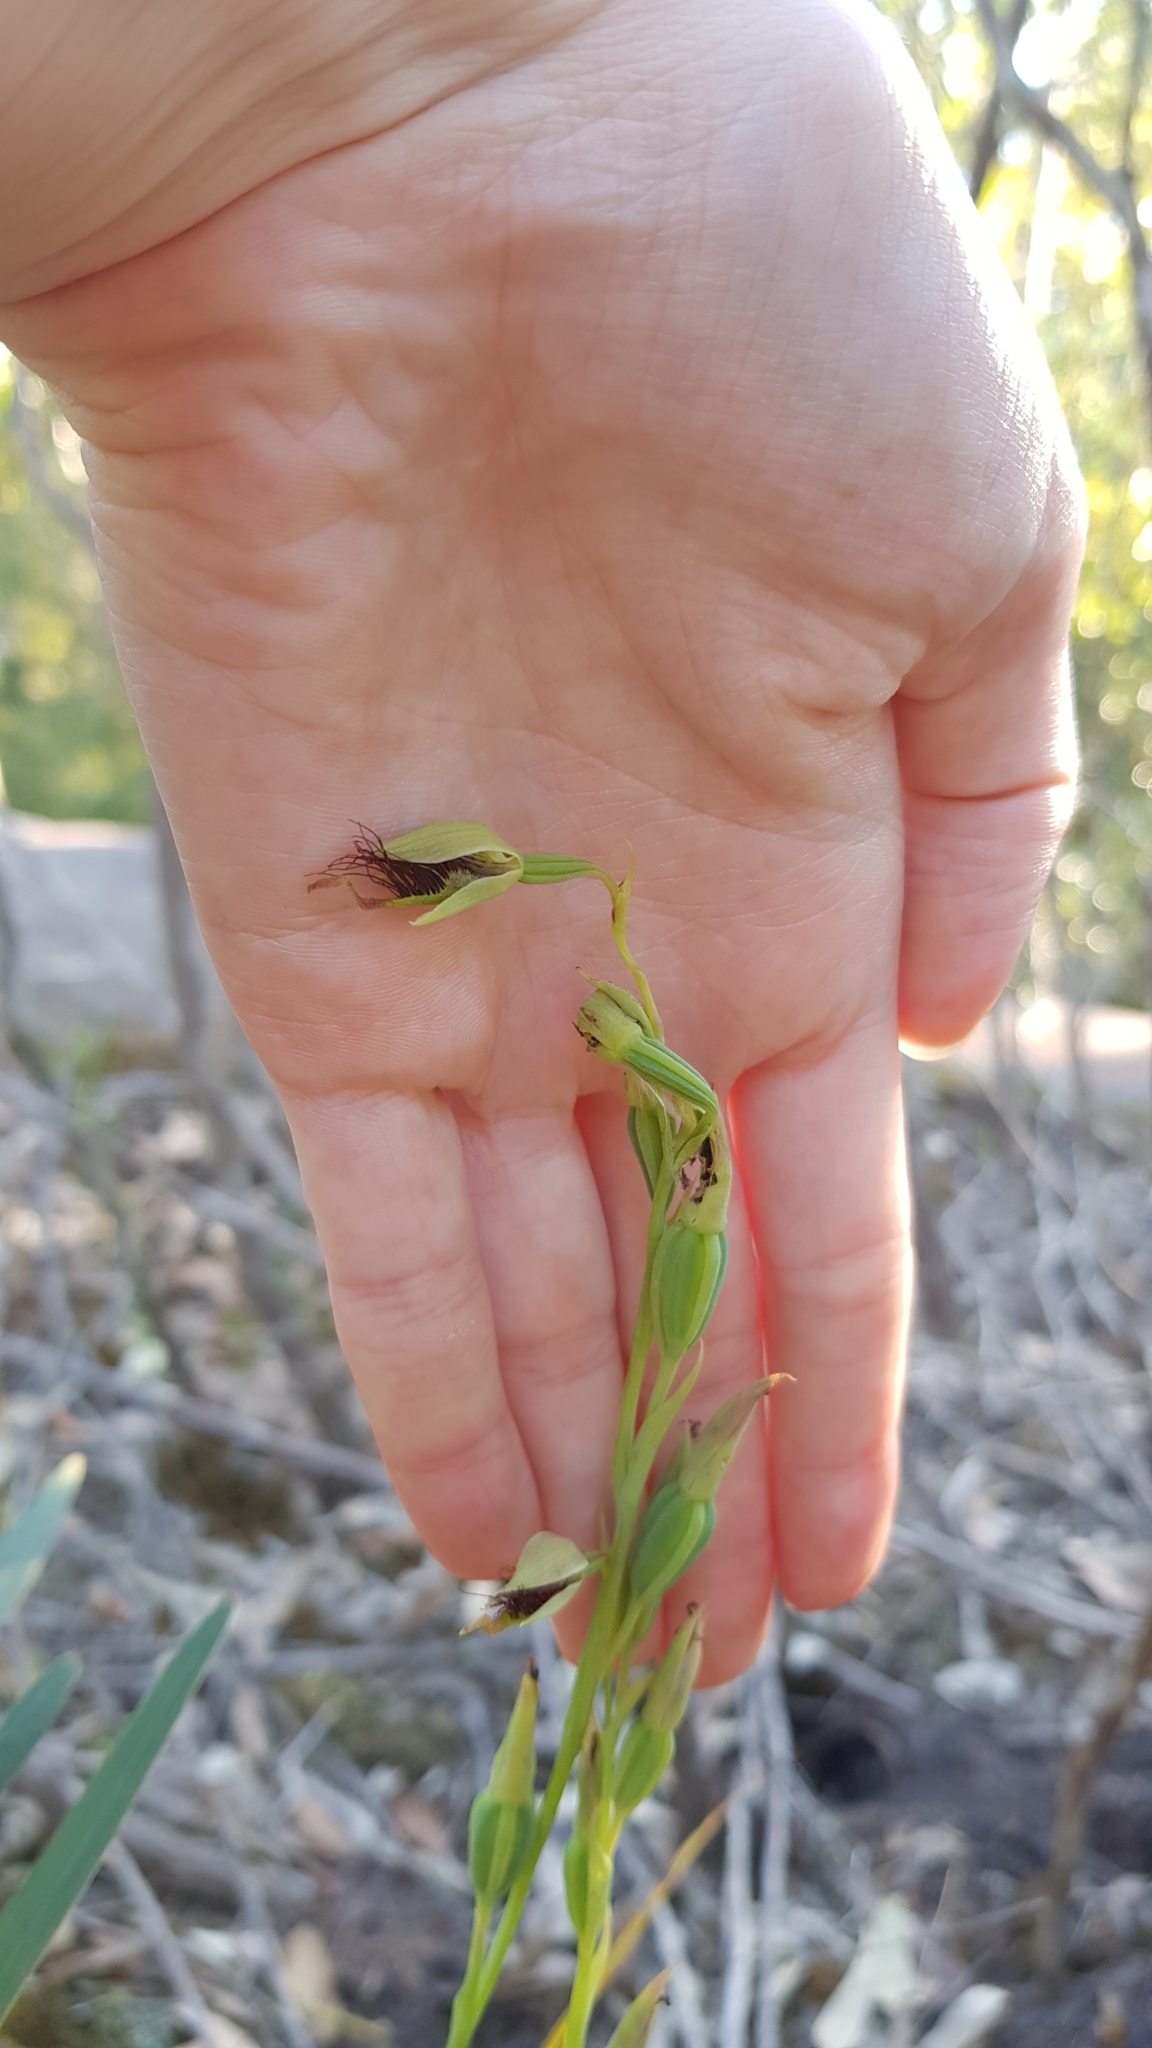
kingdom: Plantae
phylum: Tracheophyta
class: Liliopsida
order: Asparagales
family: Orchidaceae
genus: Calochilus
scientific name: Calochilus paludosus
